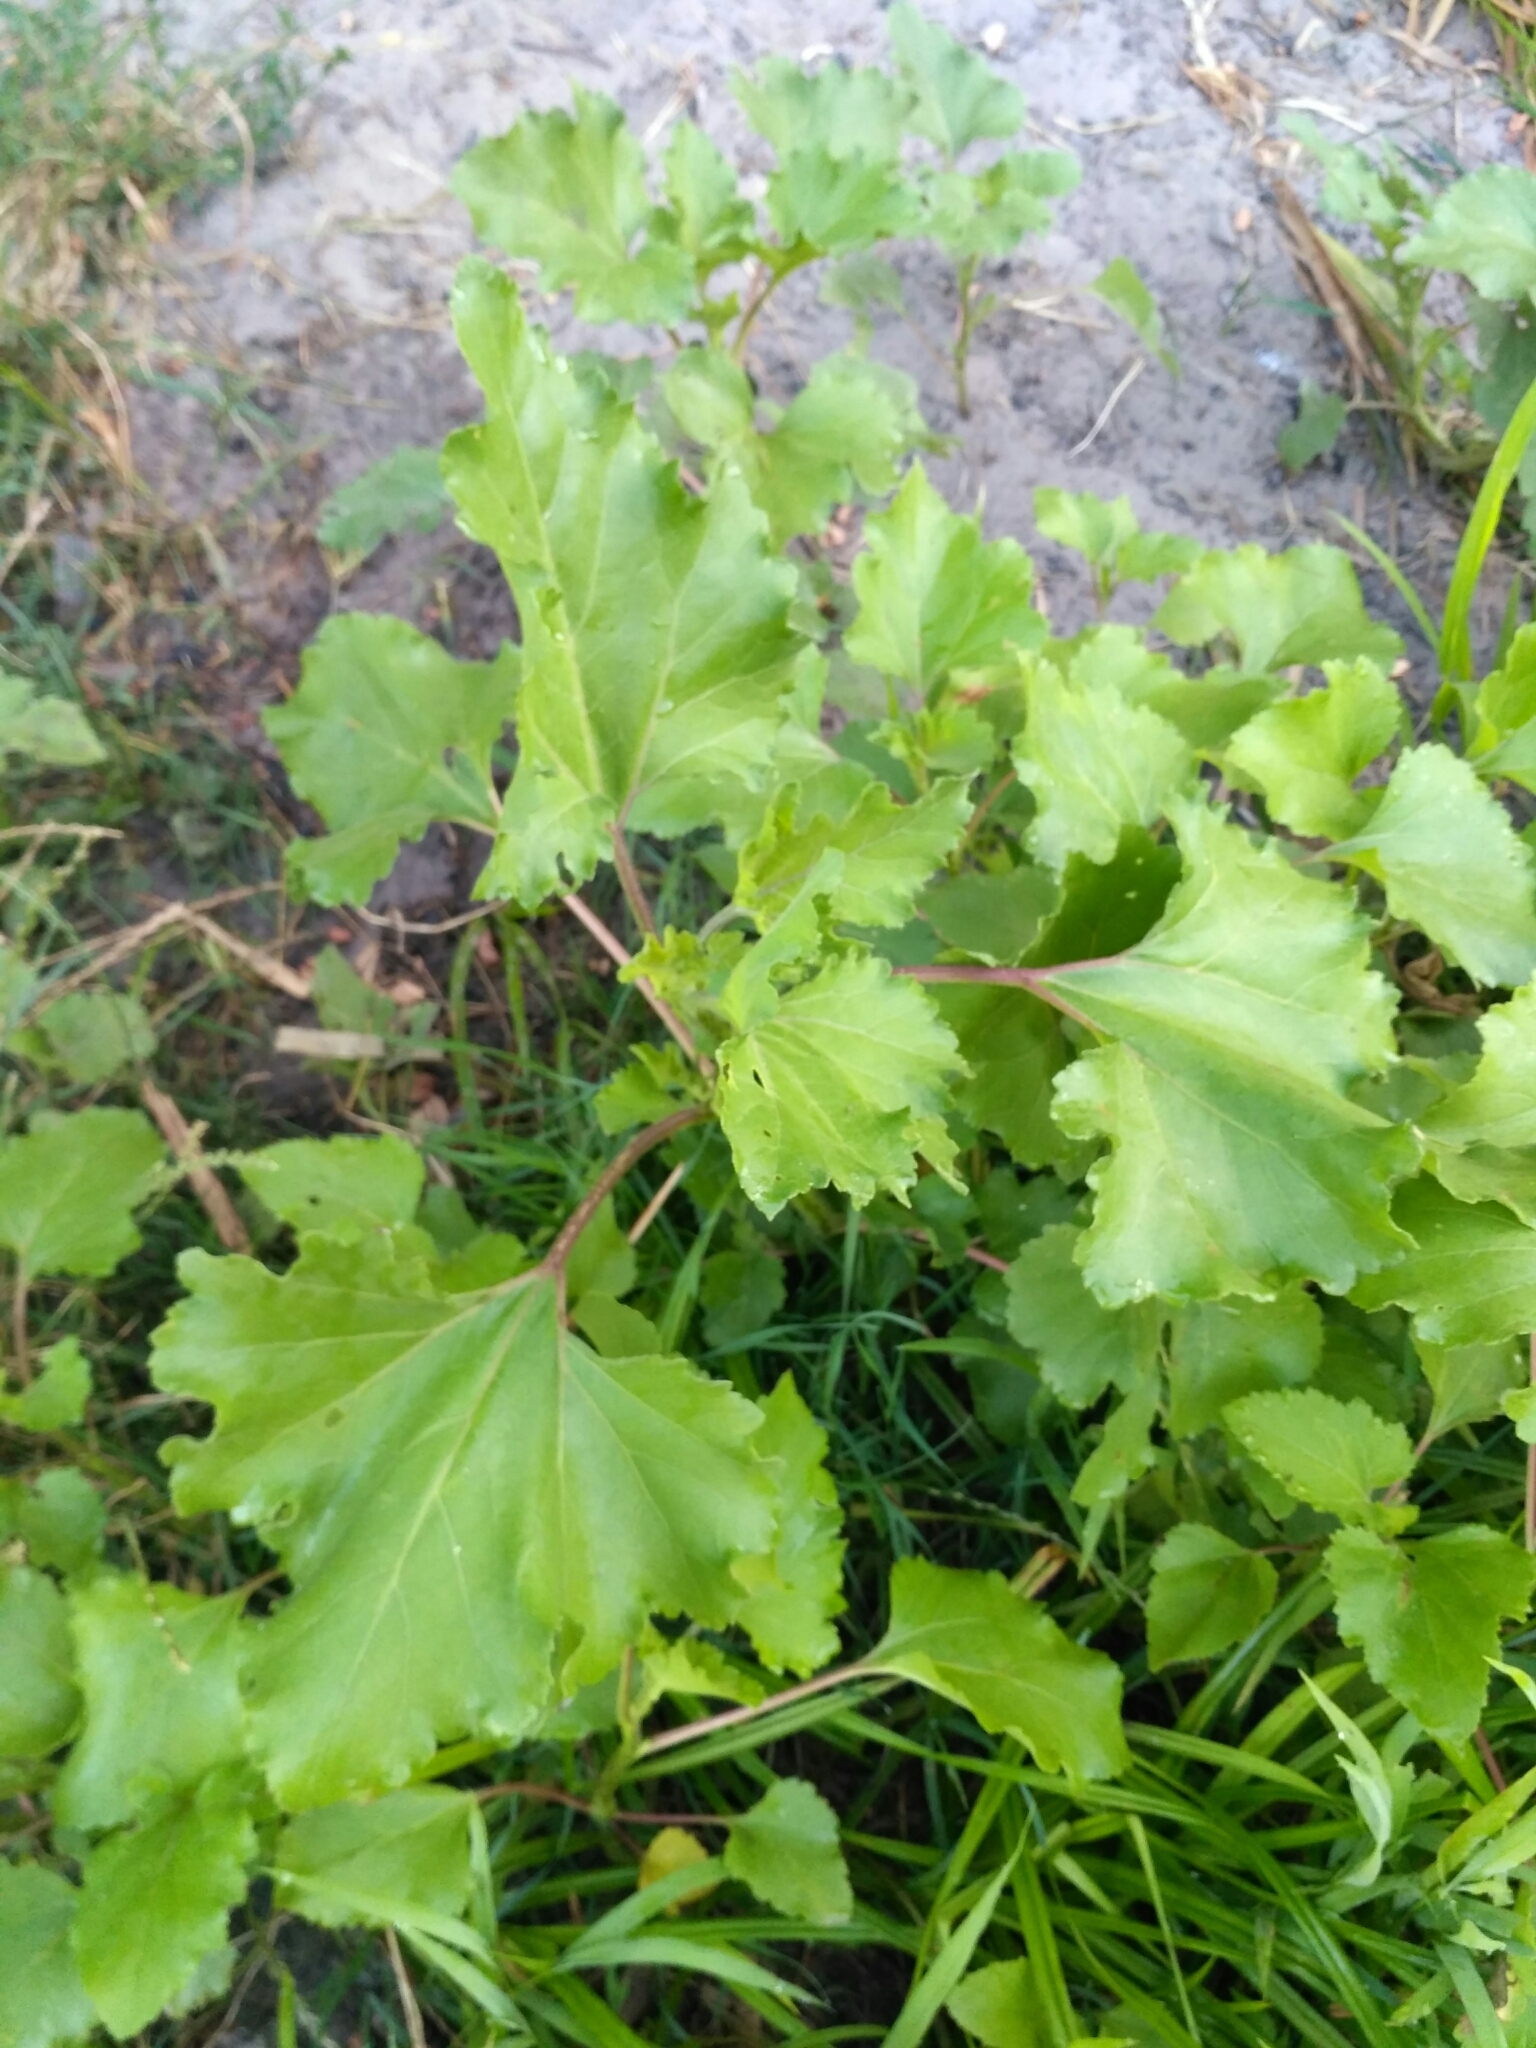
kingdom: Plantae
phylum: Tracheophyta
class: Magnoliopsida
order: Asterales
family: Asteraceae
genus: Xanthium
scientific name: Xanthium orientale
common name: Californian burr
